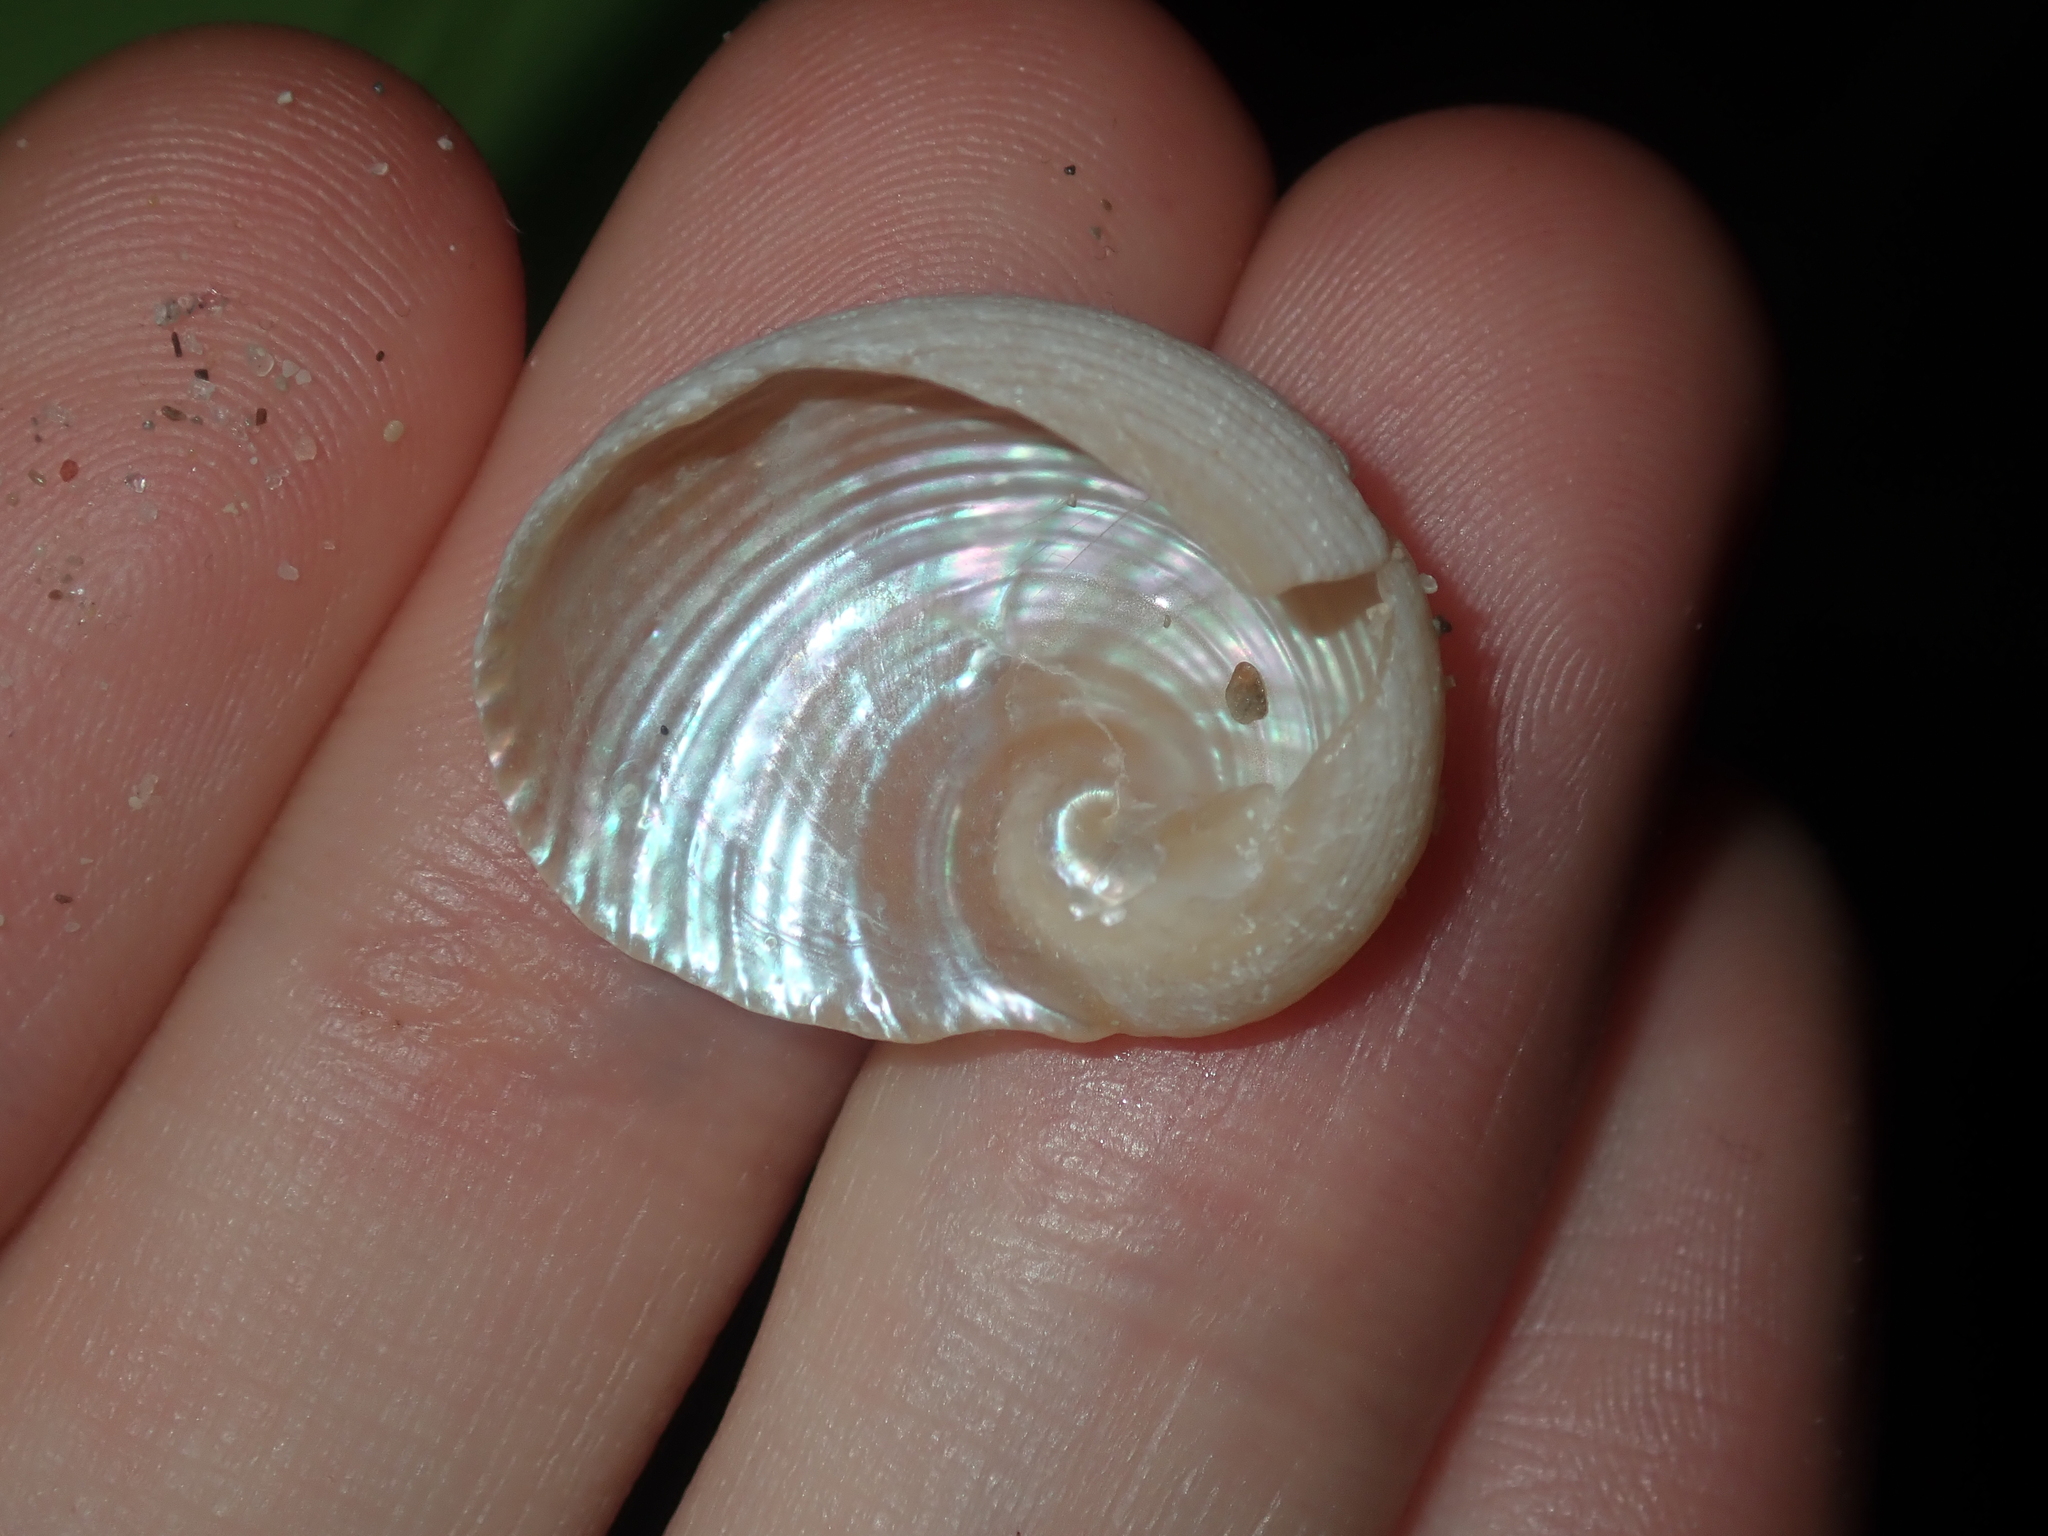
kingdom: Animalia
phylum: Mollusca
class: Gastropoda
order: Seguenziida
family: Chilodontaidae
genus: Granata
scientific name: Granata imbricata
